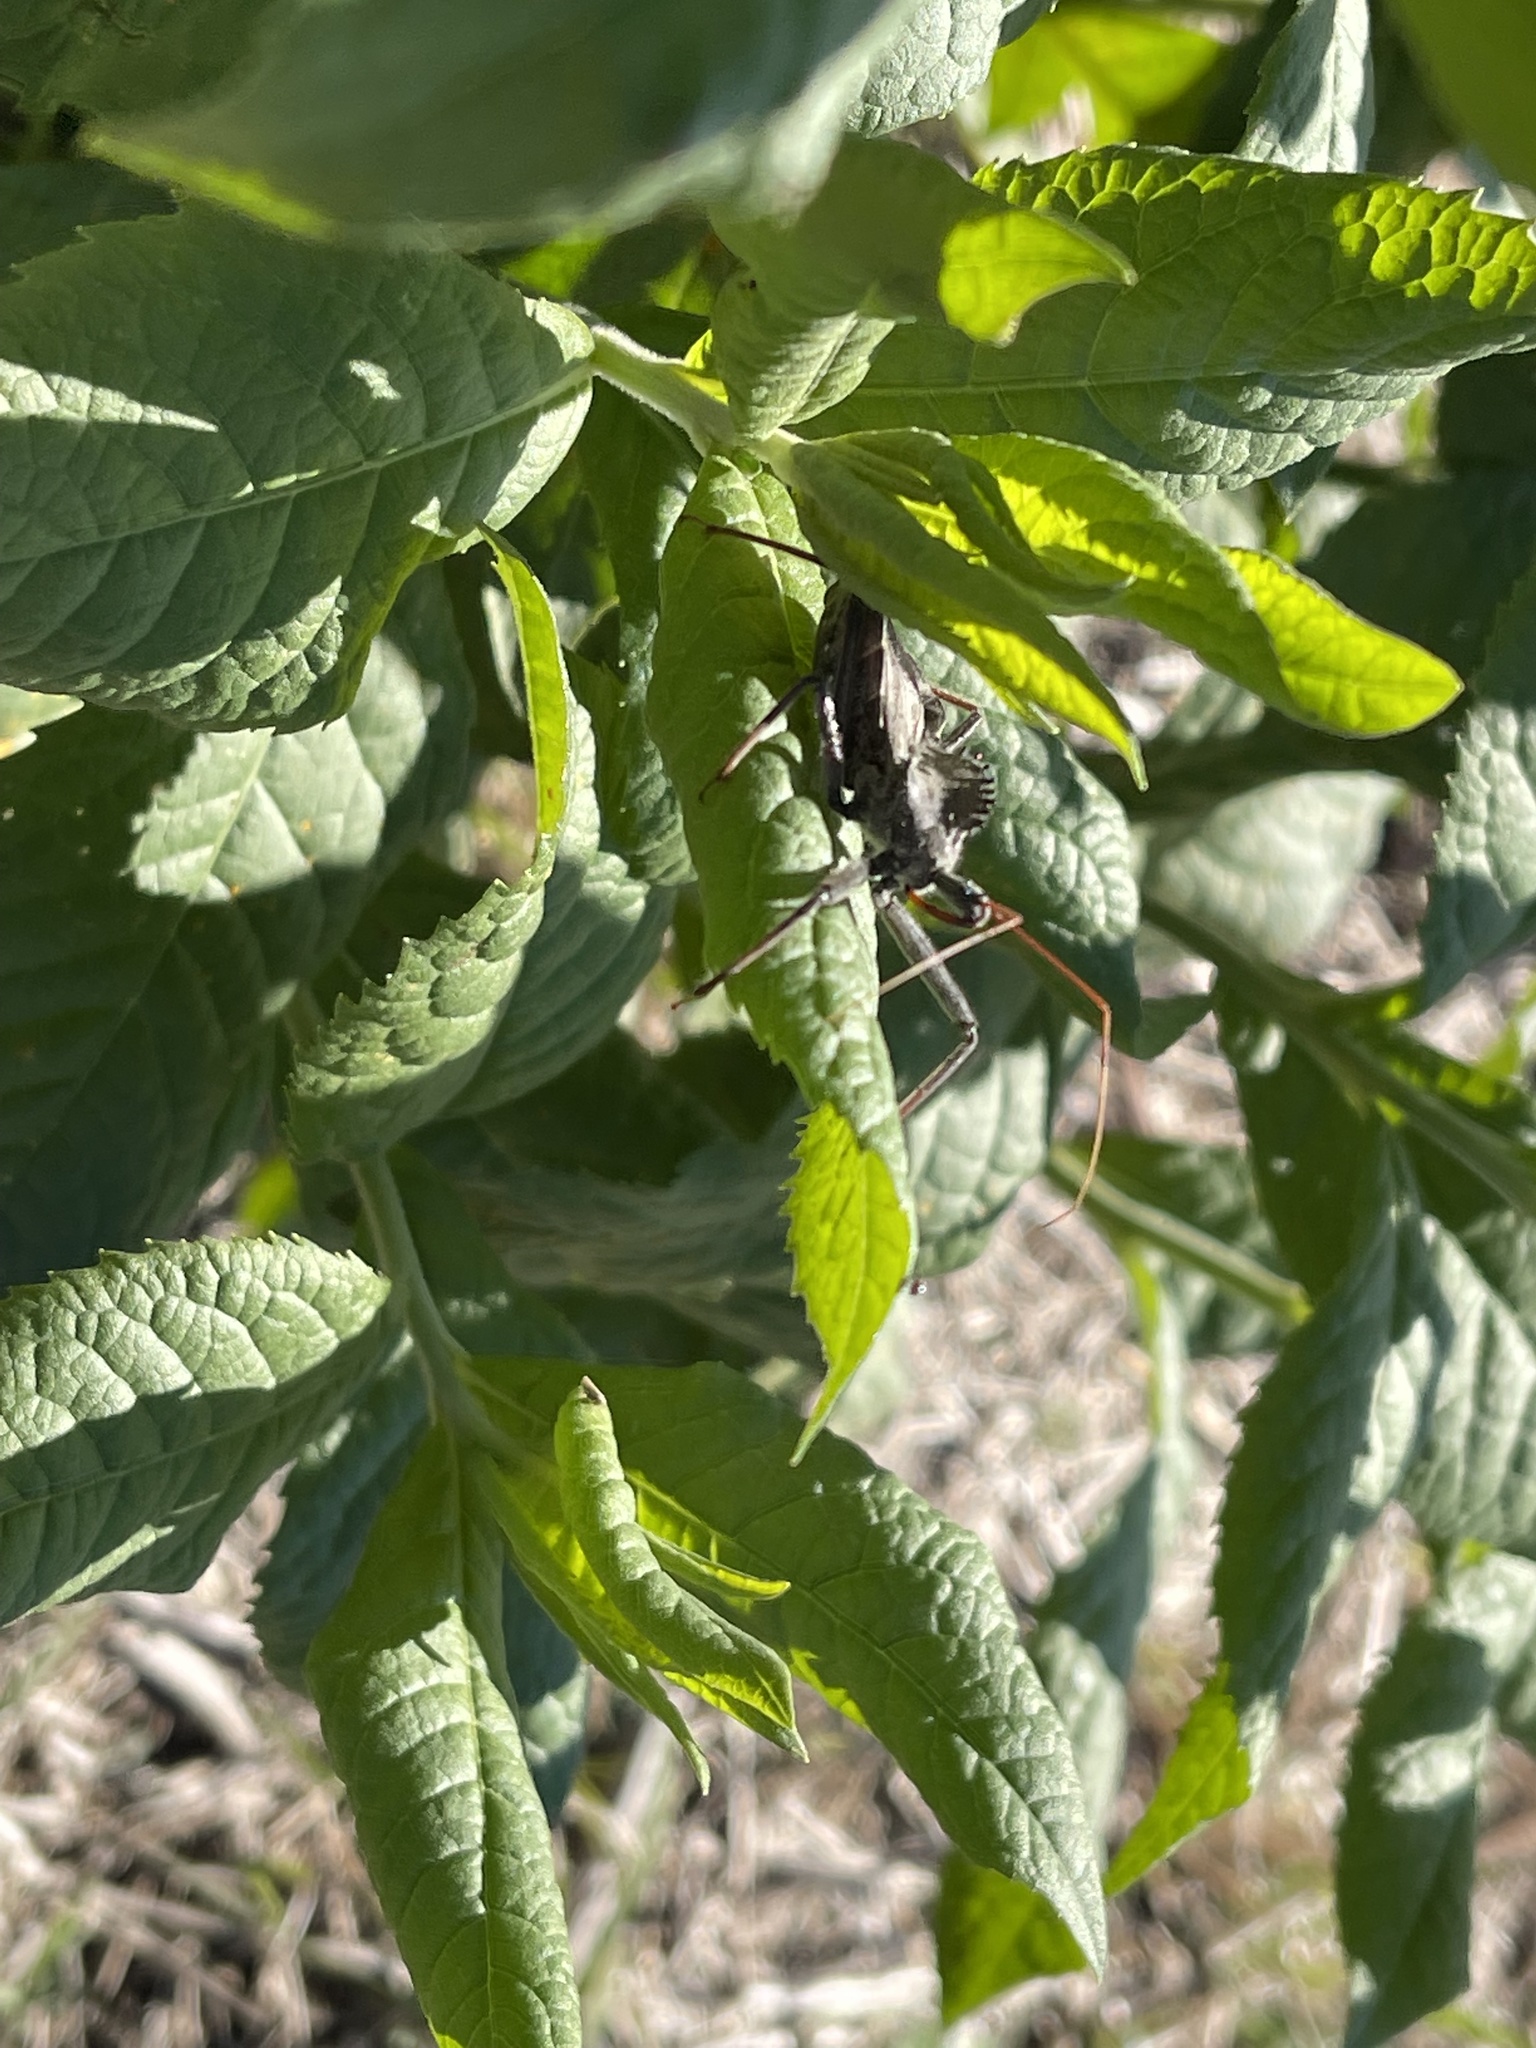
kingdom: Animalia
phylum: Arthropoda
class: Insecta
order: Hemiptera
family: Reduviidae
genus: Arilus
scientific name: Arilus cristatus
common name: North american wheel bug
